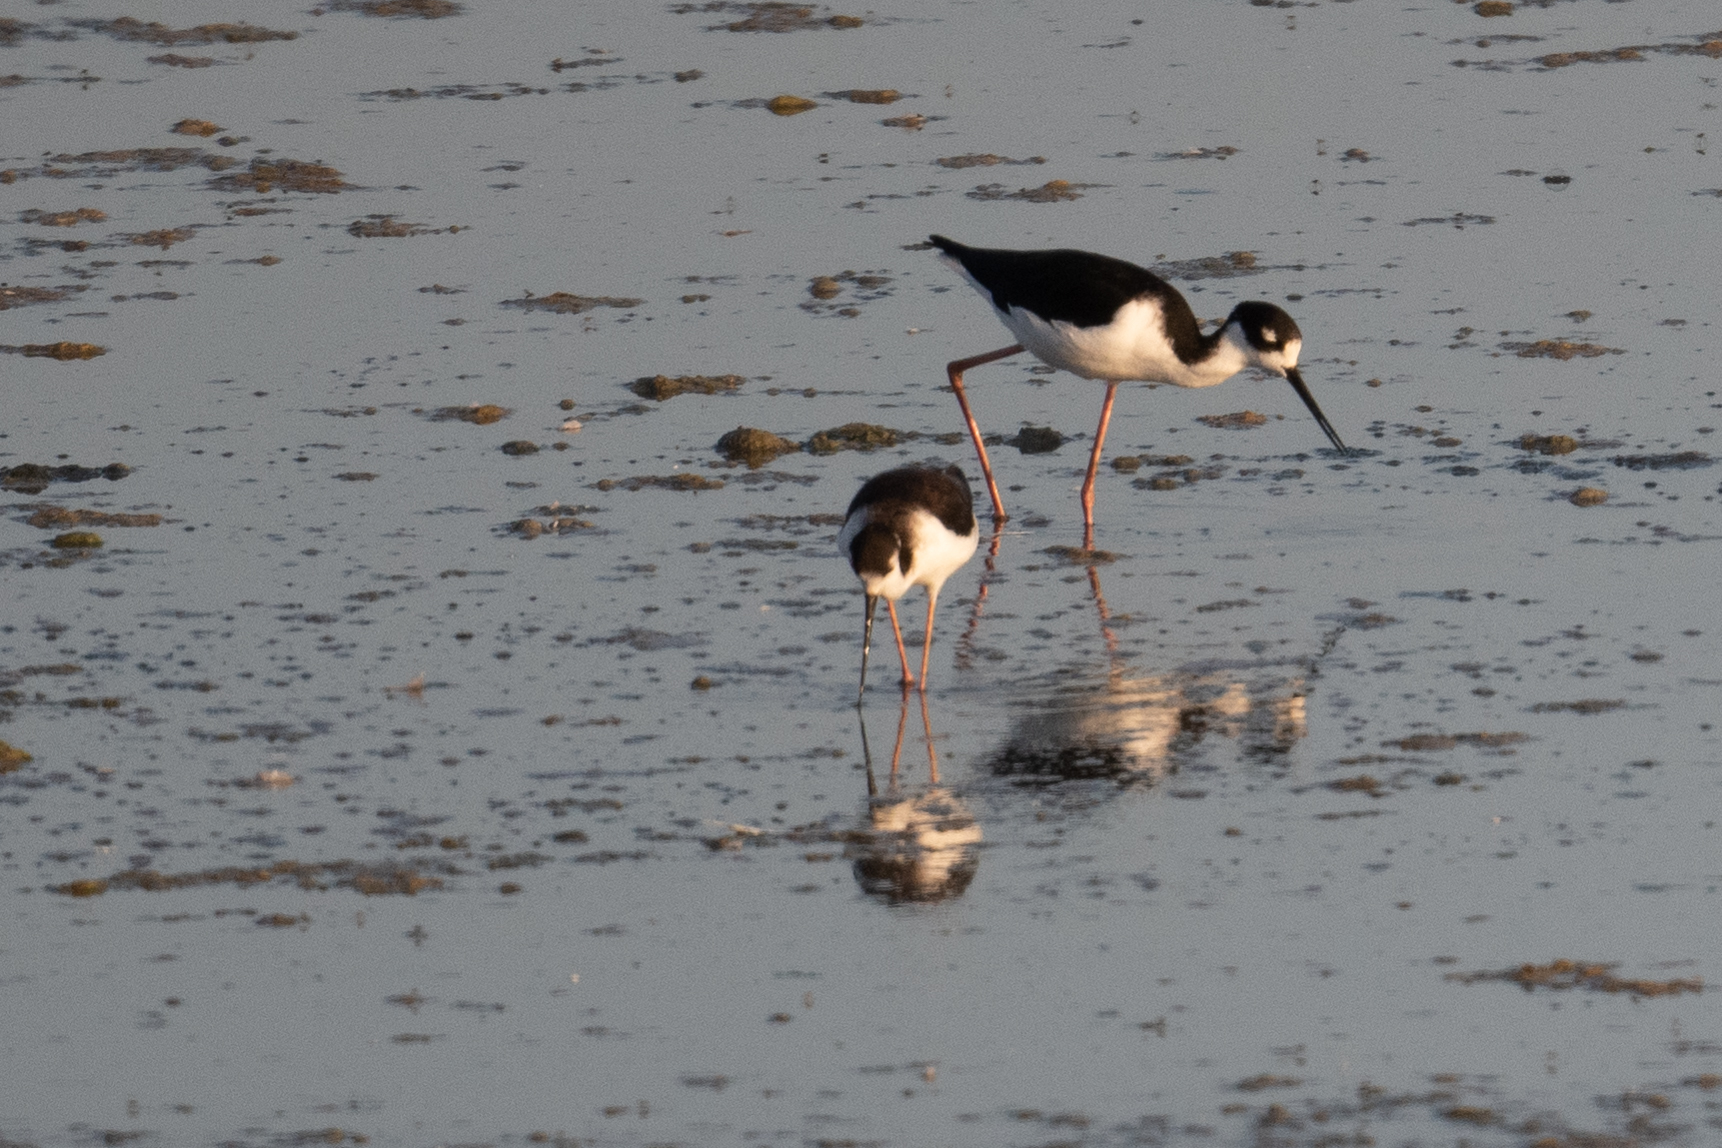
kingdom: Animalia
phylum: Chordata
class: Aves
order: Charadriiformes
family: Recurvirostridae
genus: Himantopus
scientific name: Himantopus mexicanus
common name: Black-necked stilt
